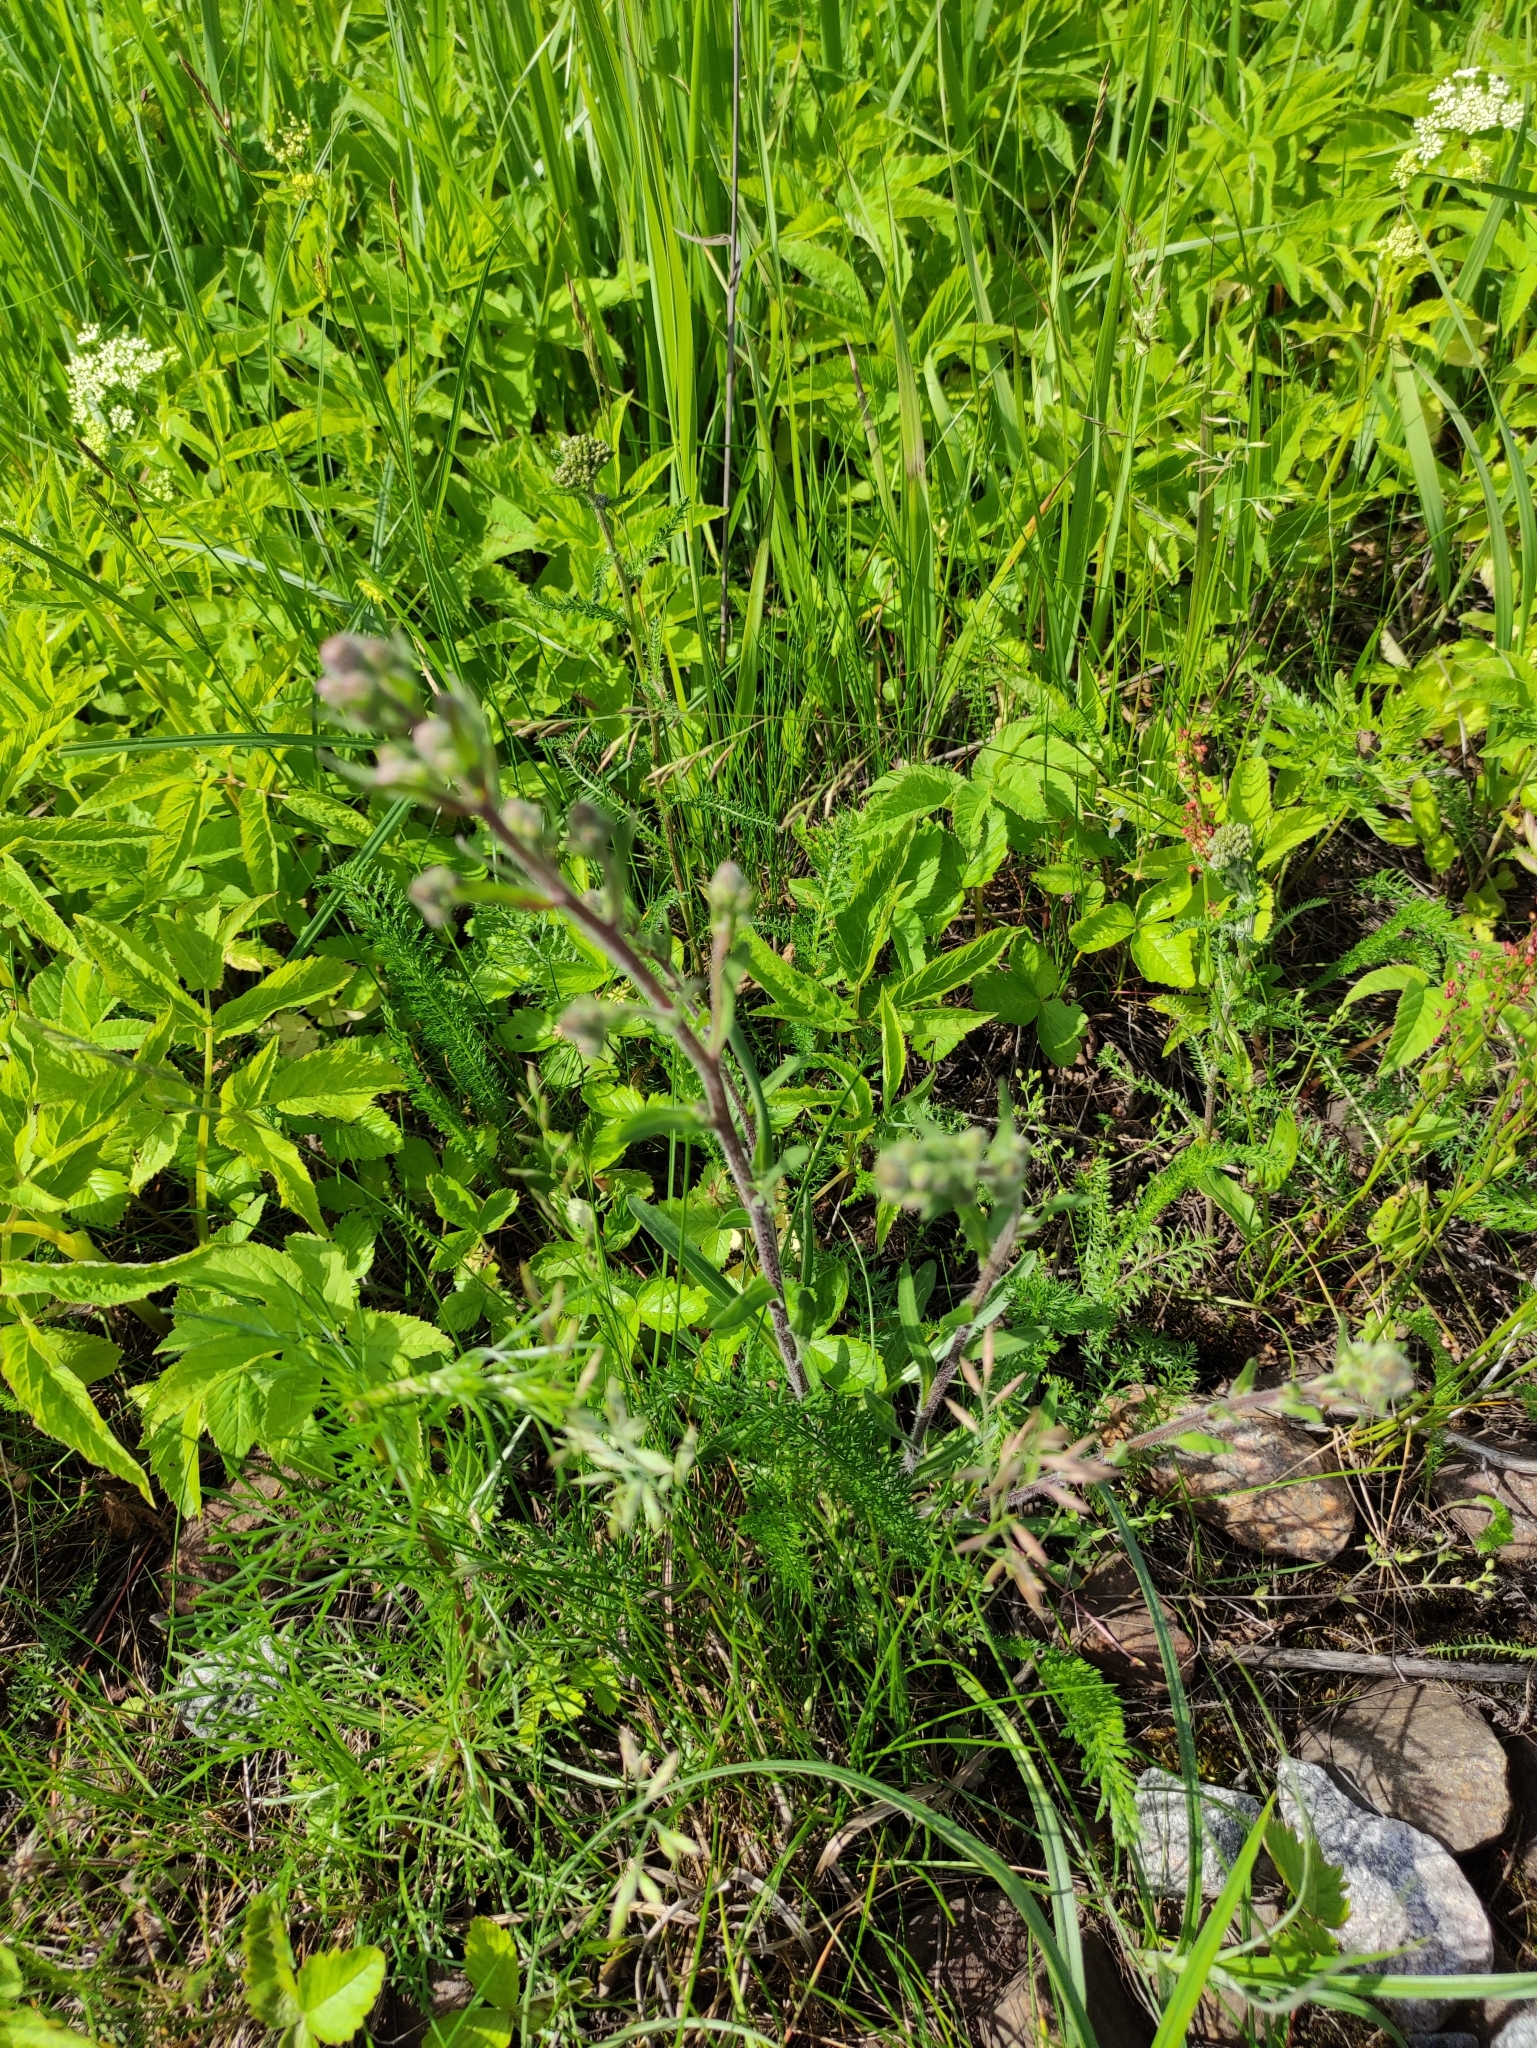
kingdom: Plantae
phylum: Tracheophyta
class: Magnoliopsida
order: Asterales
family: Asteraceae
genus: Erigeron
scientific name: Erigeron acris
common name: Blue fleabane
